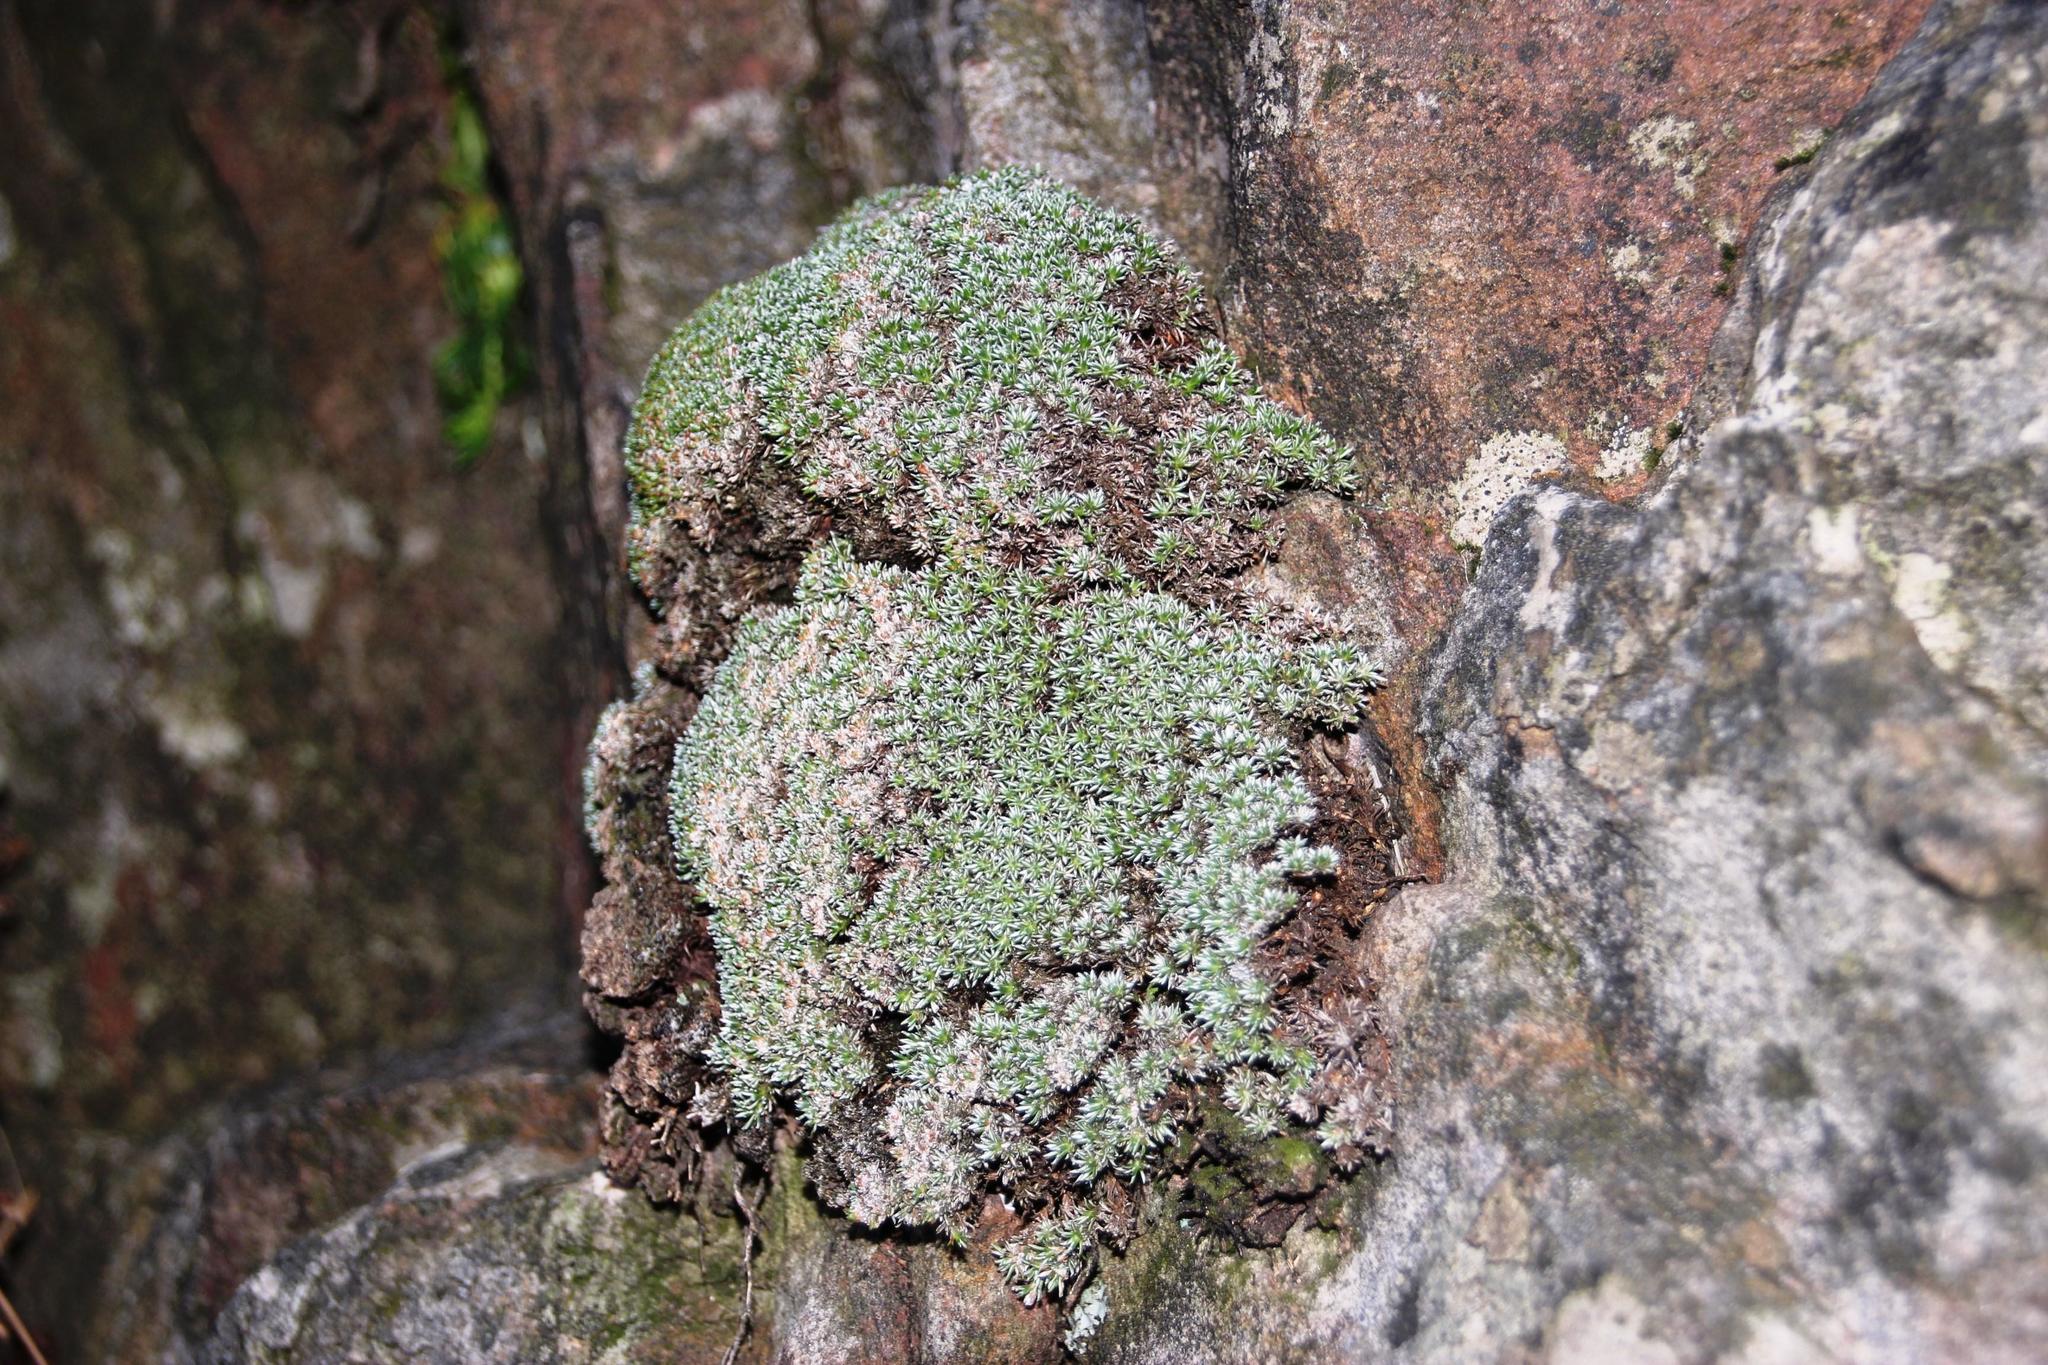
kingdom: Plantae
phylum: Tracheophyta
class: Magnoliopsida
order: Asterales
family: Asteraceae
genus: Muscosomorphe
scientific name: Muscosomorphe aretioides
